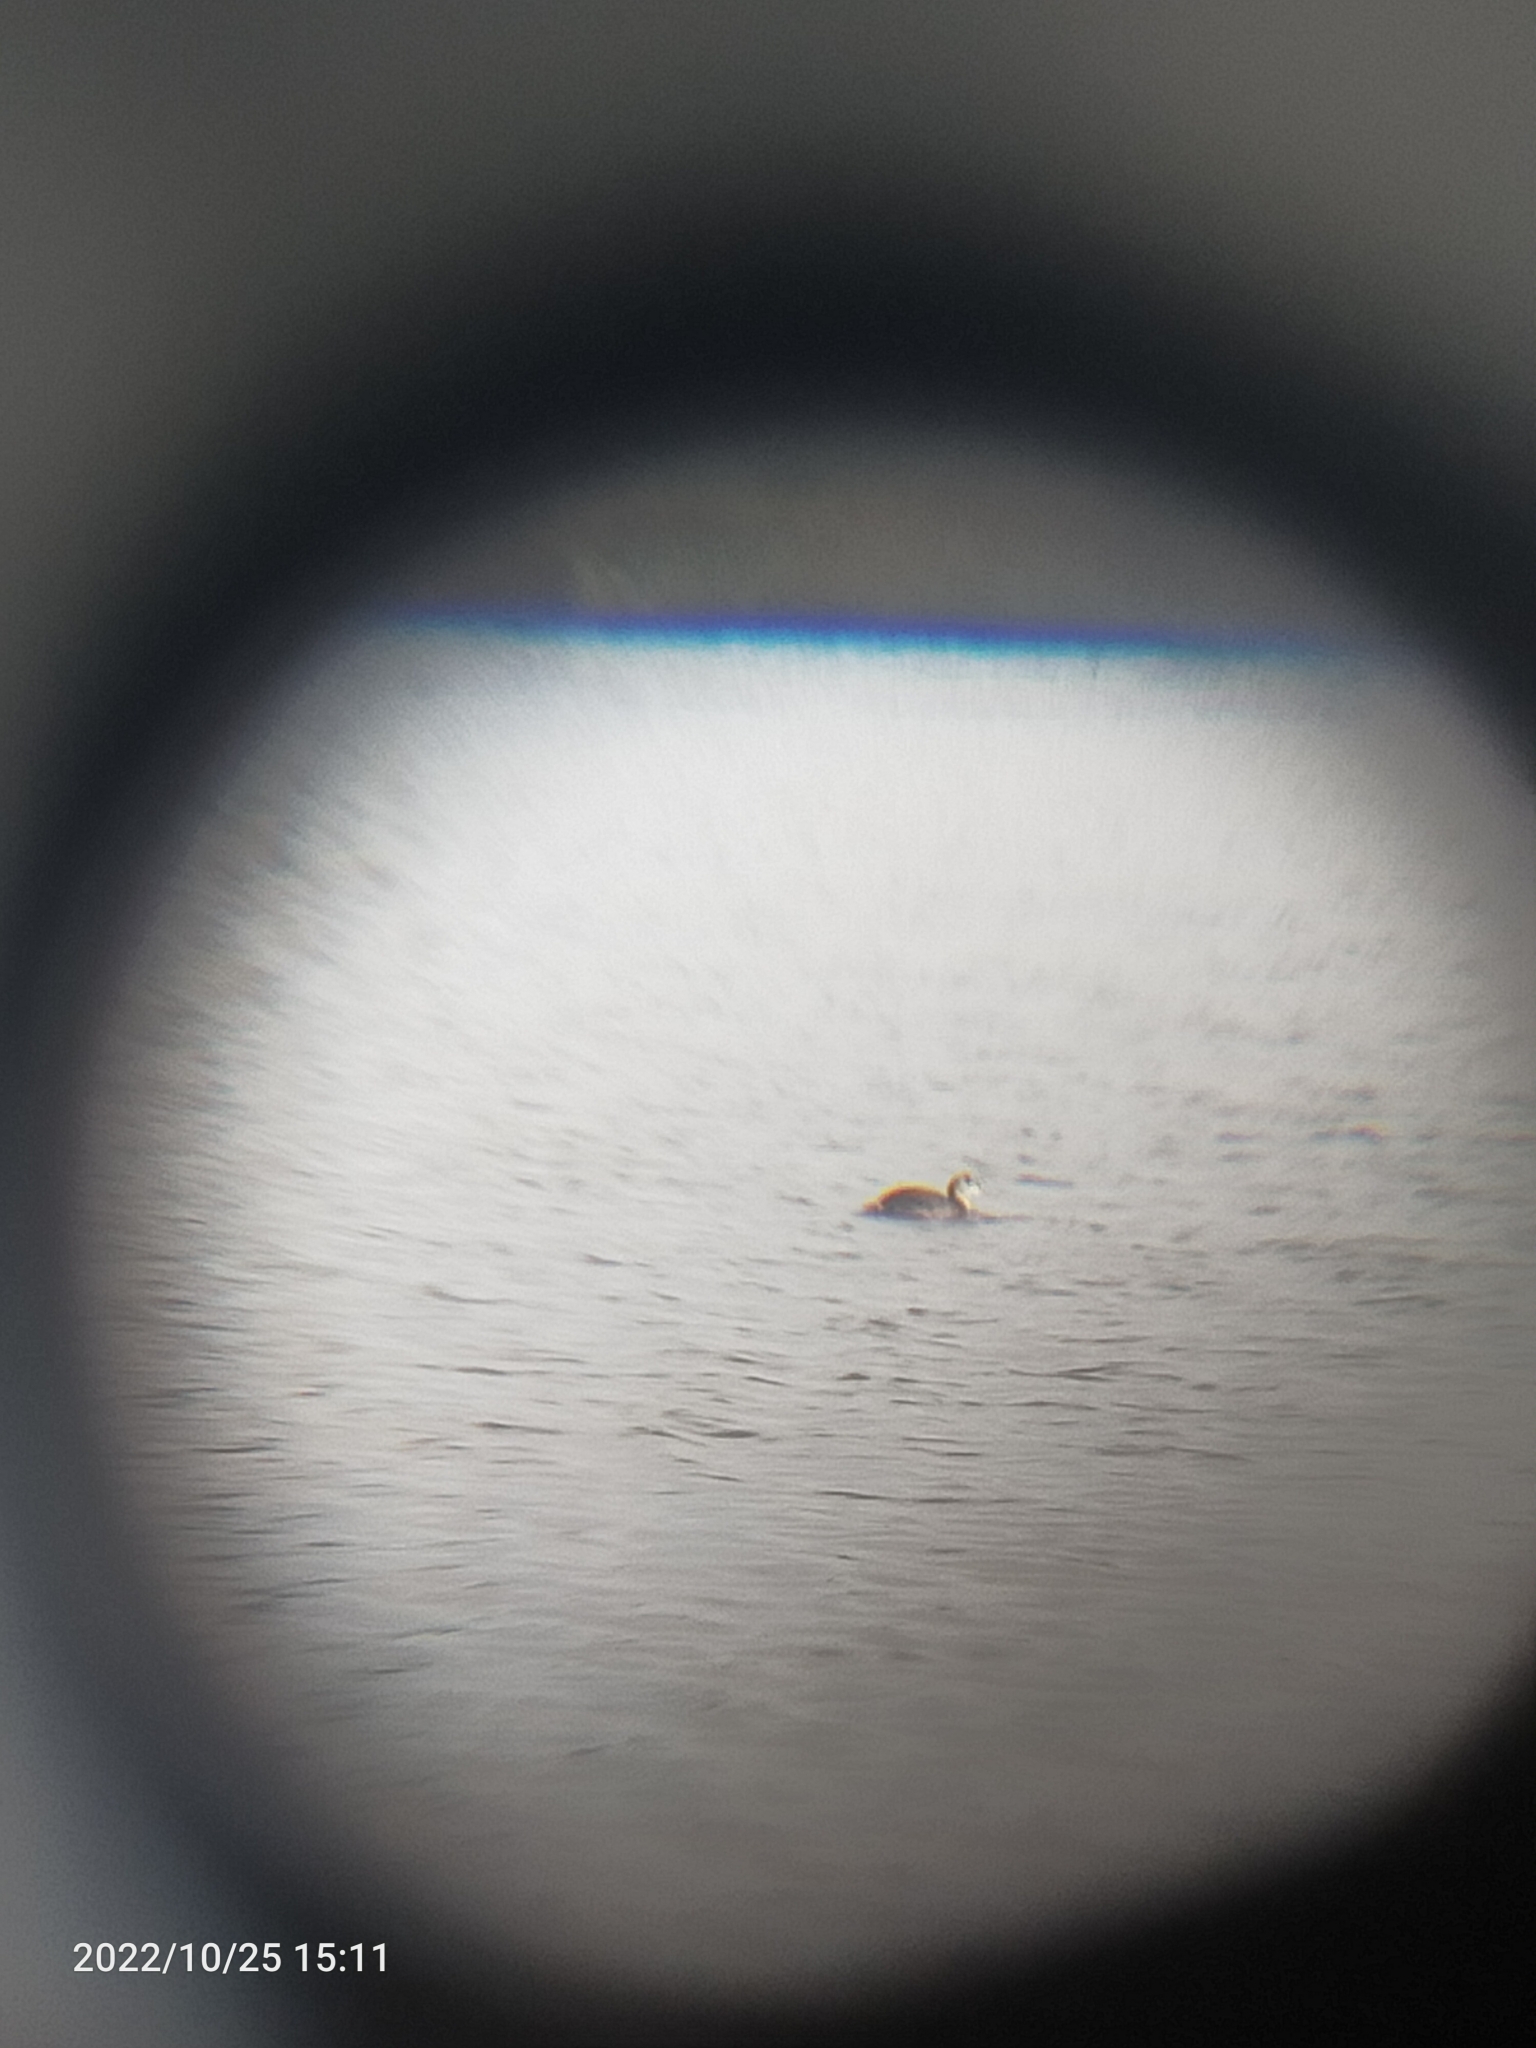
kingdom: Animalia
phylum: Chordata
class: Aves
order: Podicipediformes
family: Podicipedidae
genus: Podiceps
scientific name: Podiceps cristatus
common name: Great crested grebe
